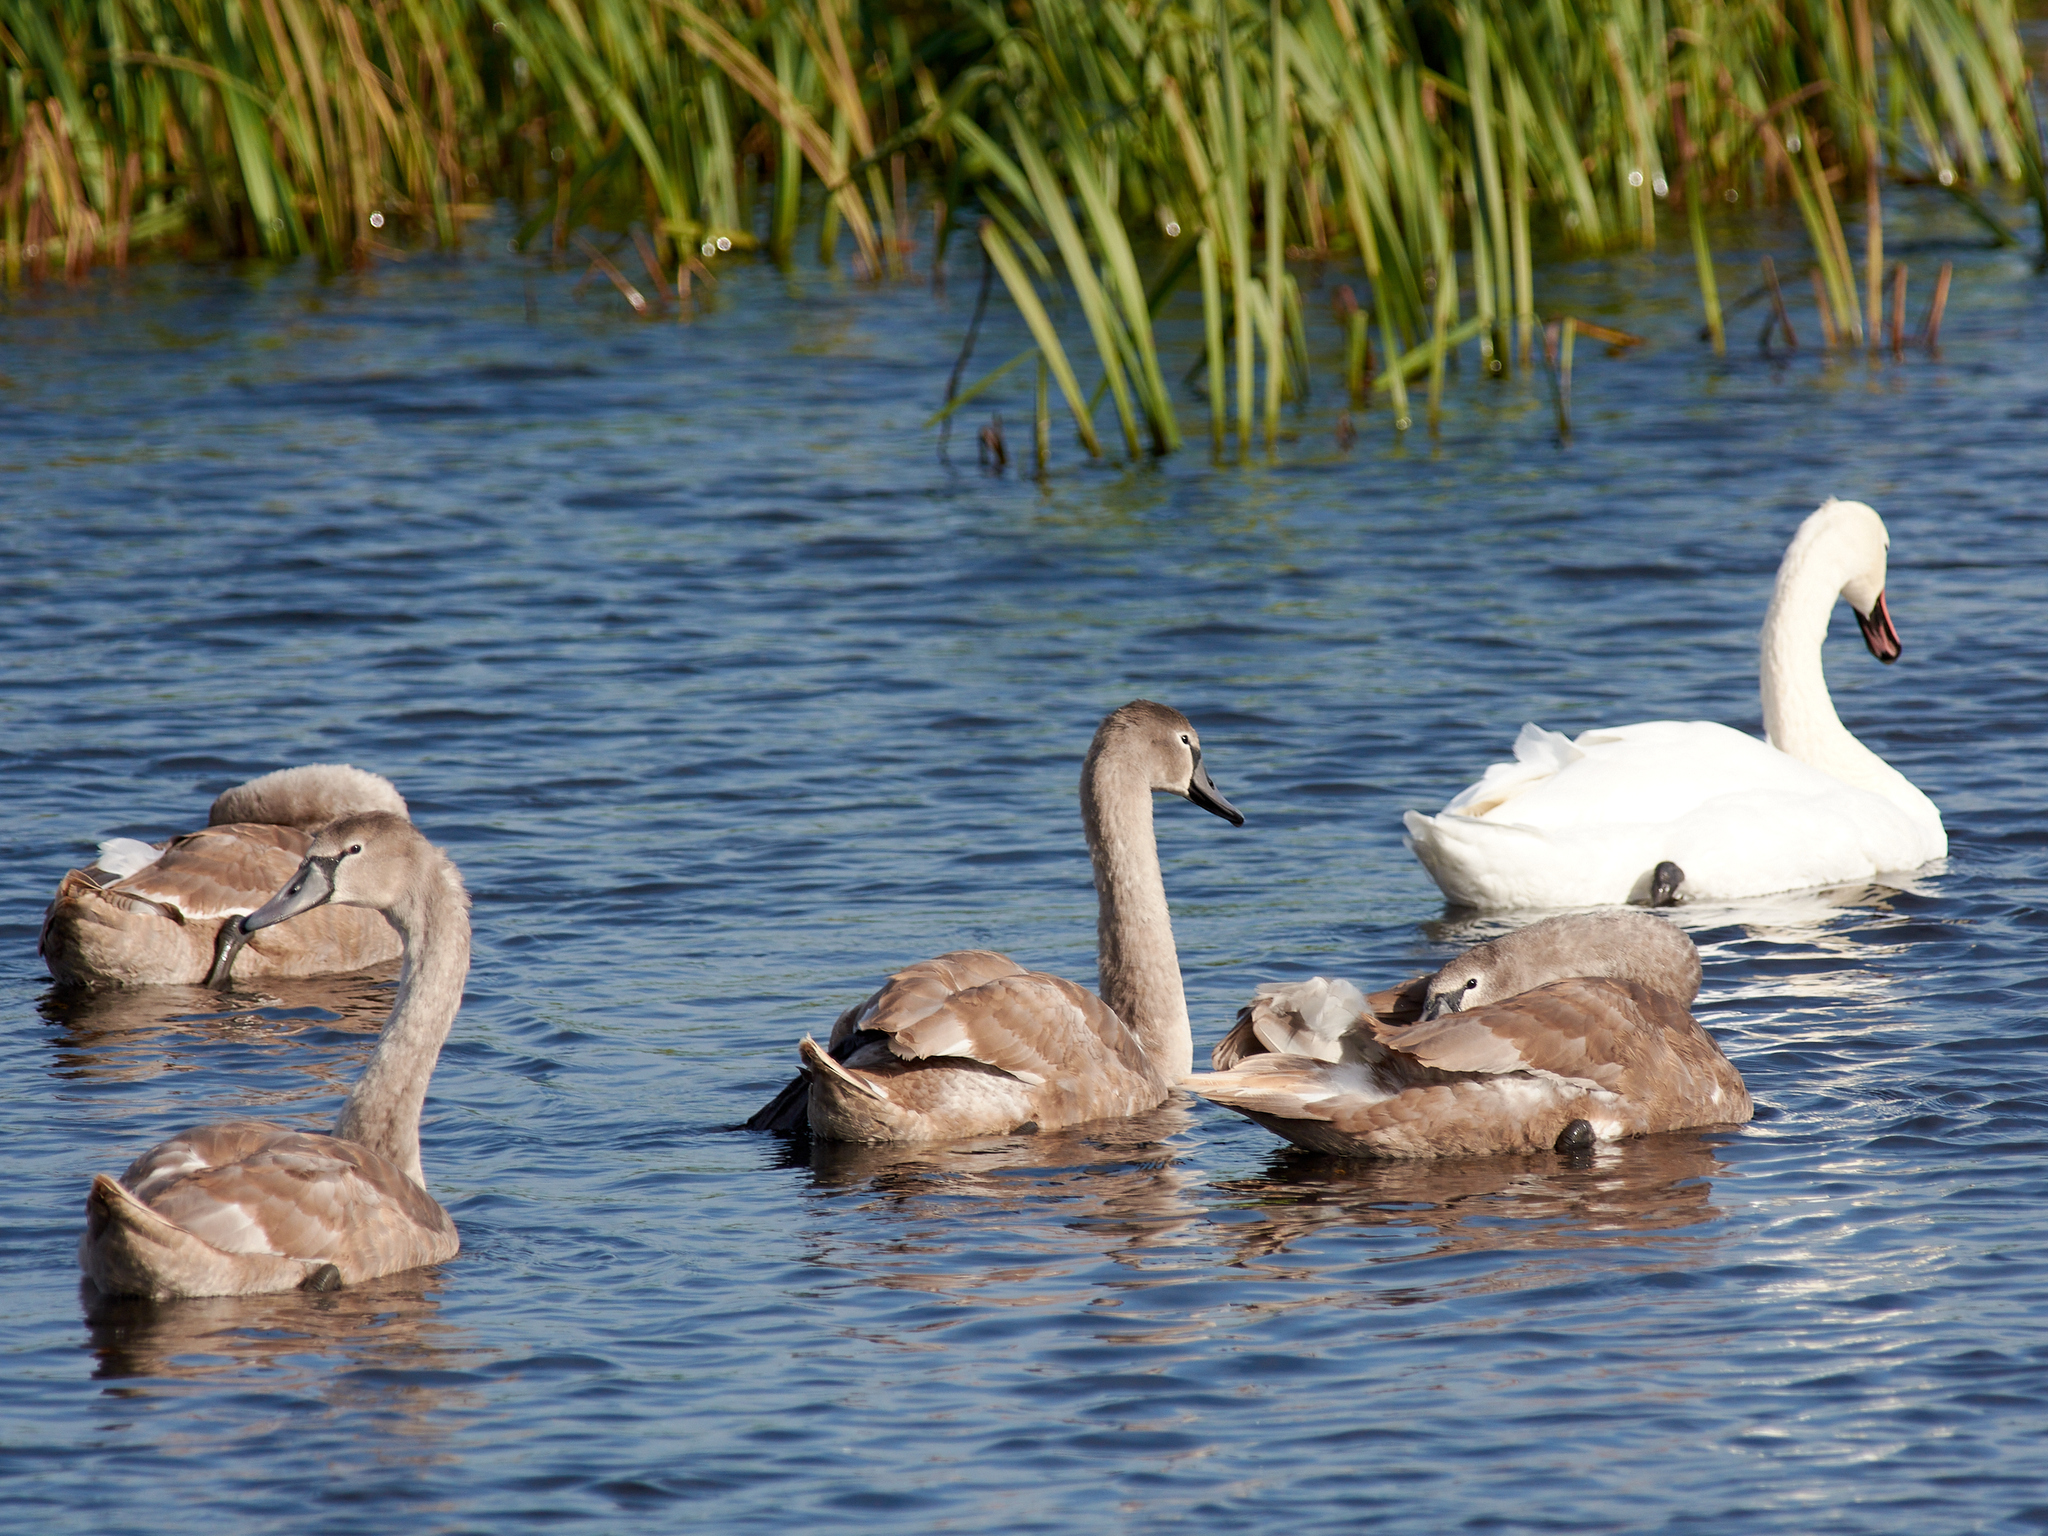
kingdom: Animalia
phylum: Chordata
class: Aves
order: Anseriformes
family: Anatidae
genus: Cygnus
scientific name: Cygnus olor
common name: Mute swan
